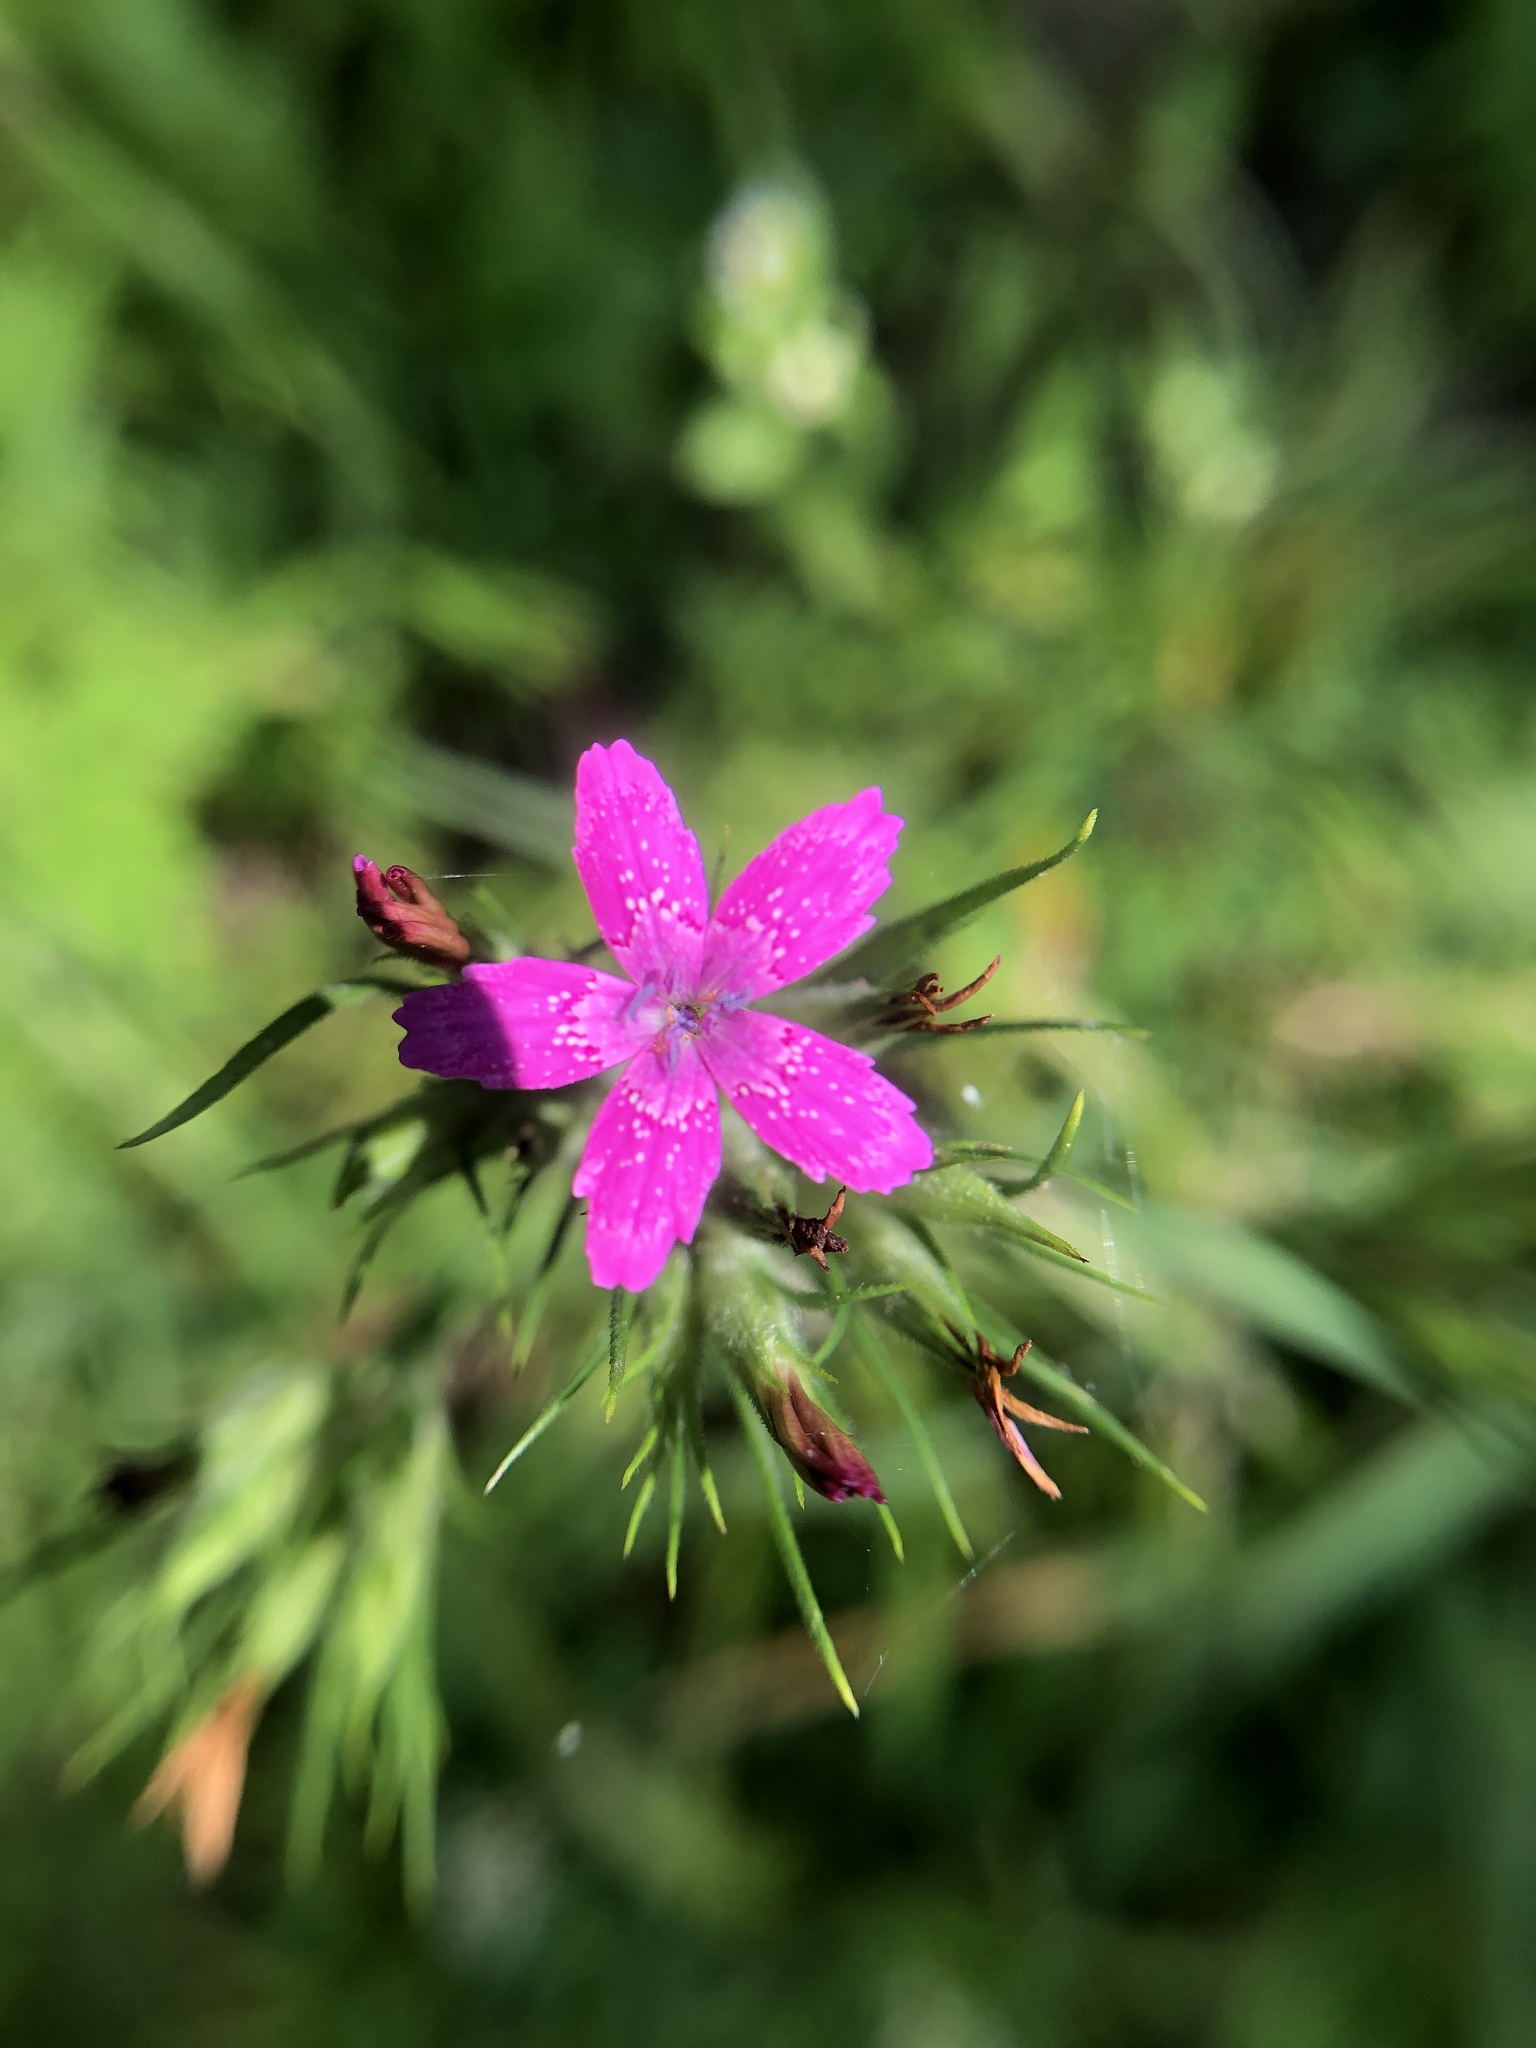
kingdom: Plantae
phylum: Tracheophyta
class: Magnoliopsida
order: Caryophyllales
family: Caryophyllaceae
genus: Dianthus
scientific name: Dianthus armeria
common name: Deptford pink
